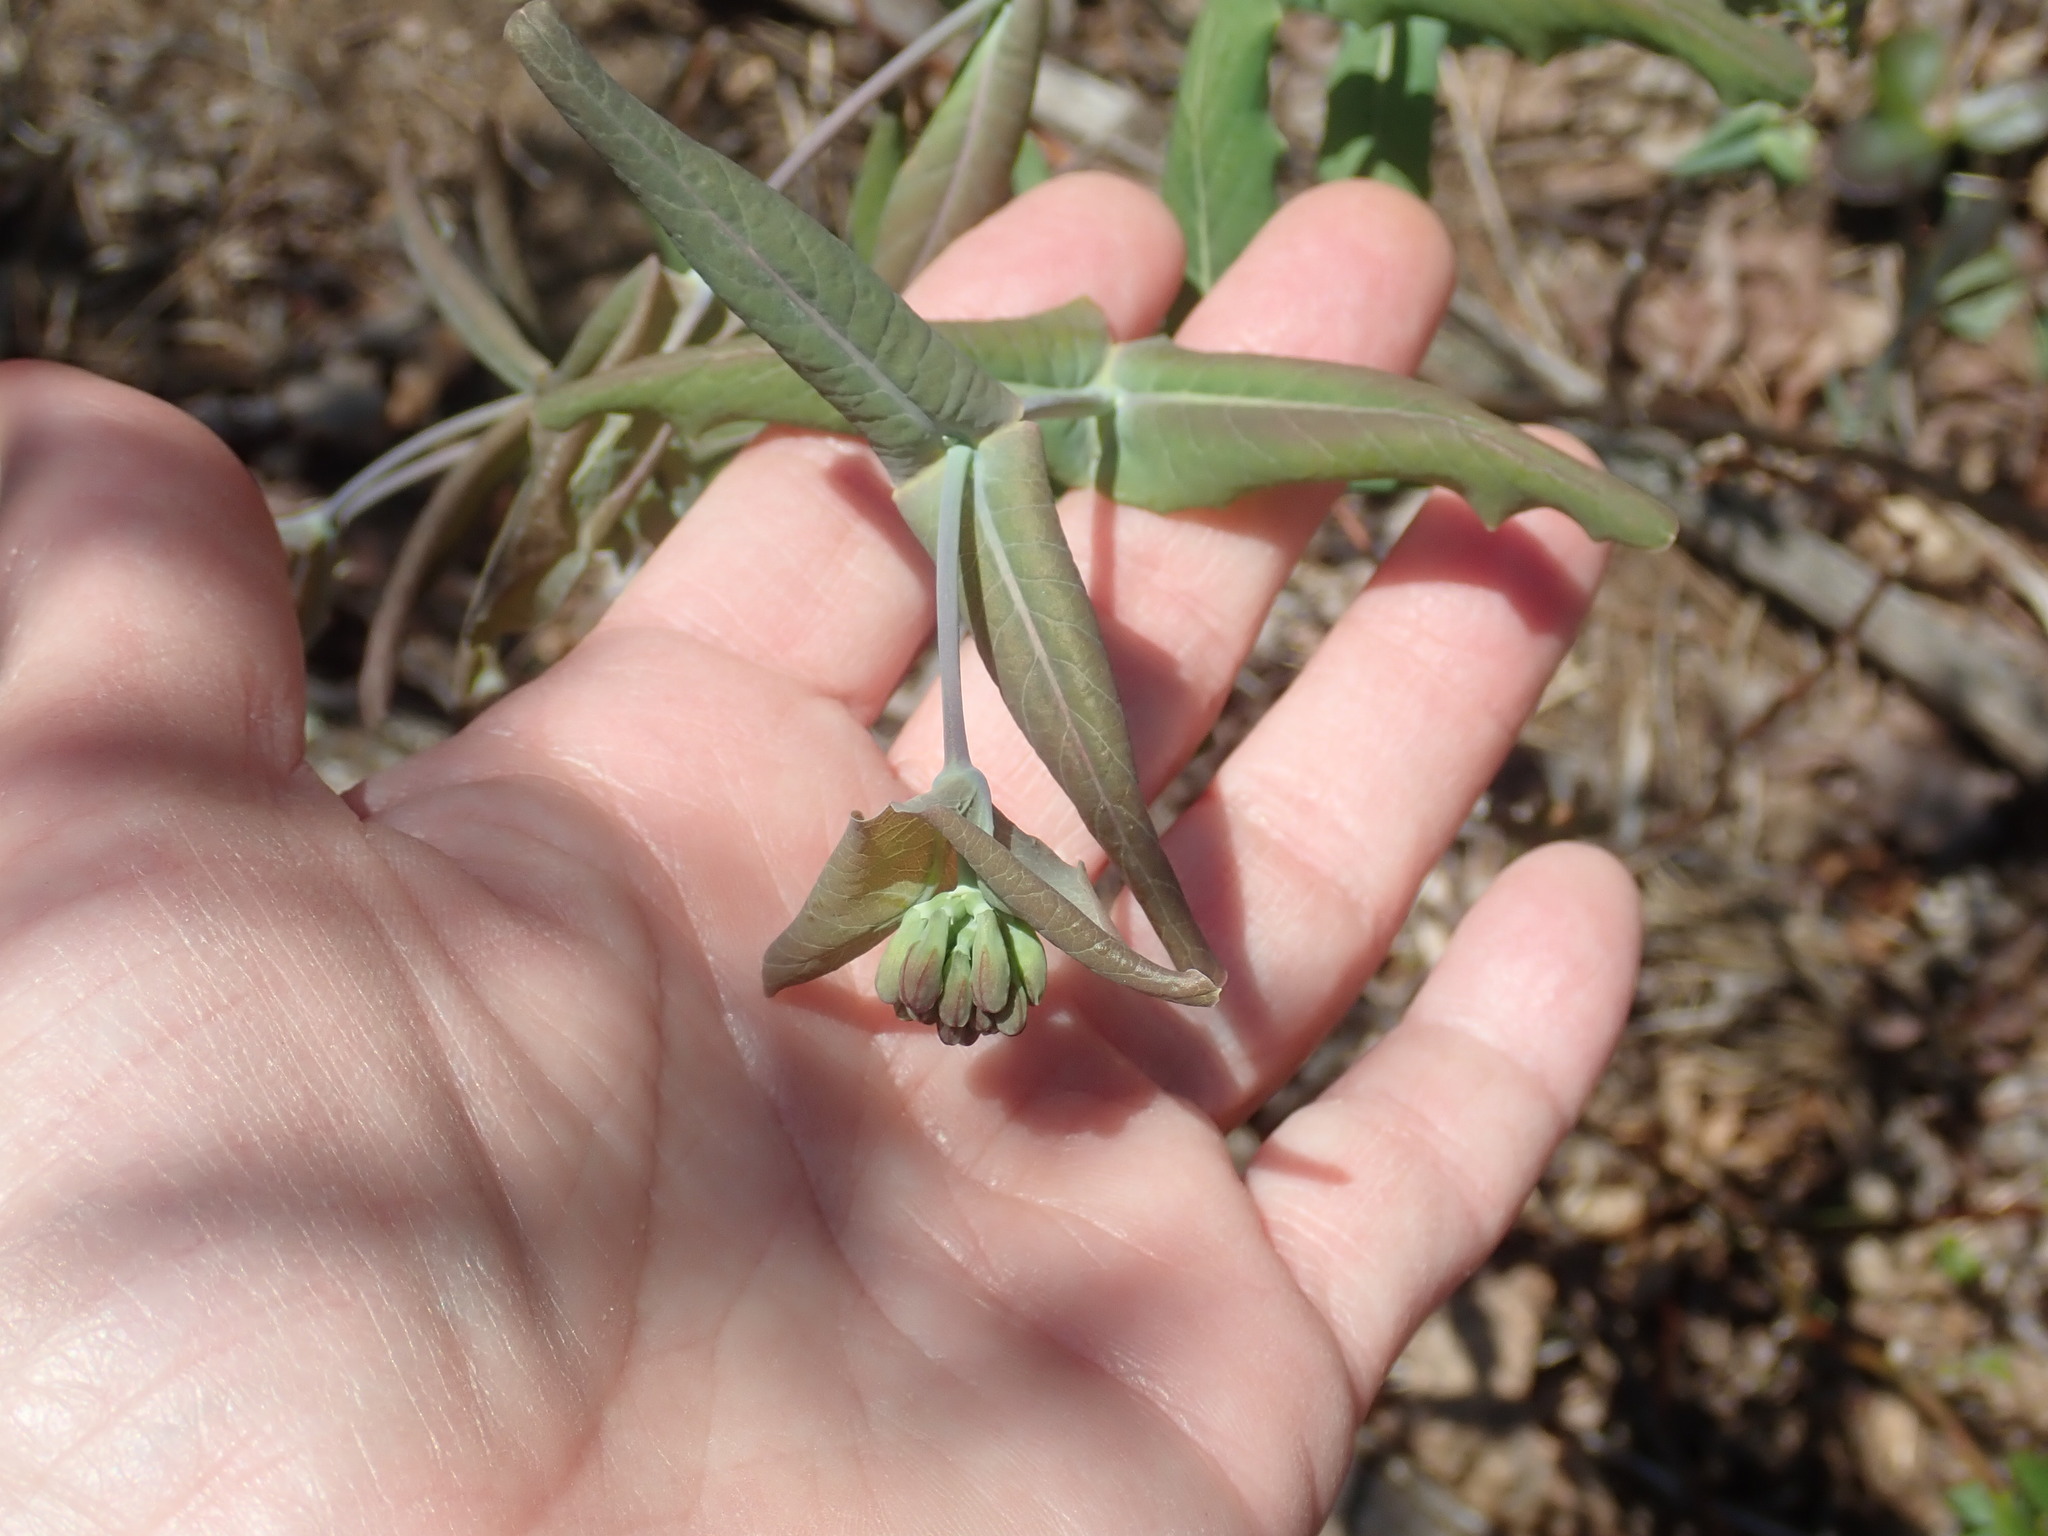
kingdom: Plantae
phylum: Tracheophyta
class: Magnoliopsida
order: Dipsacales
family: Caprifoliaceae
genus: Lonicera
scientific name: Lonicera dioica
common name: Limber honeysuckle
